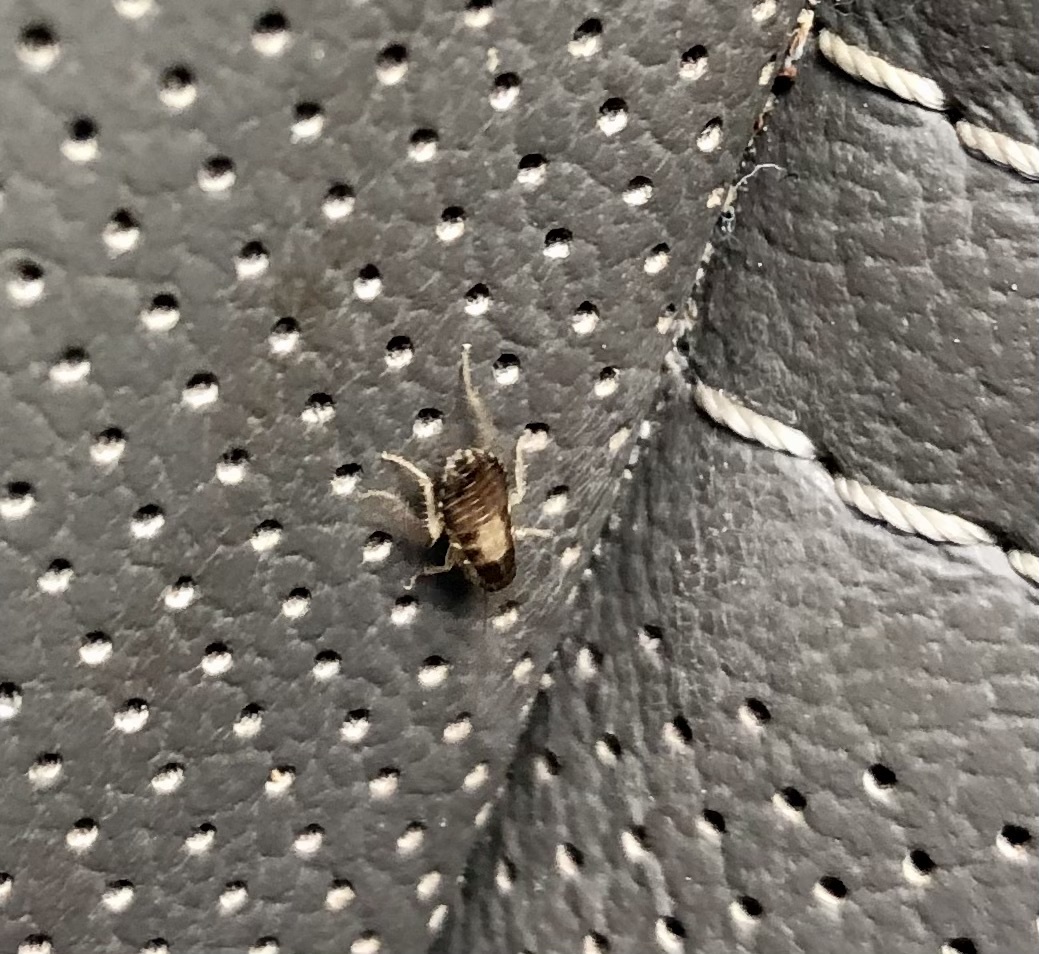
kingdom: Animalia
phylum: Arthropoda
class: Insecta
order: Blattodea
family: Ectobiidae
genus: Blattella
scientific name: Blattella germanica
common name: German cockroach
